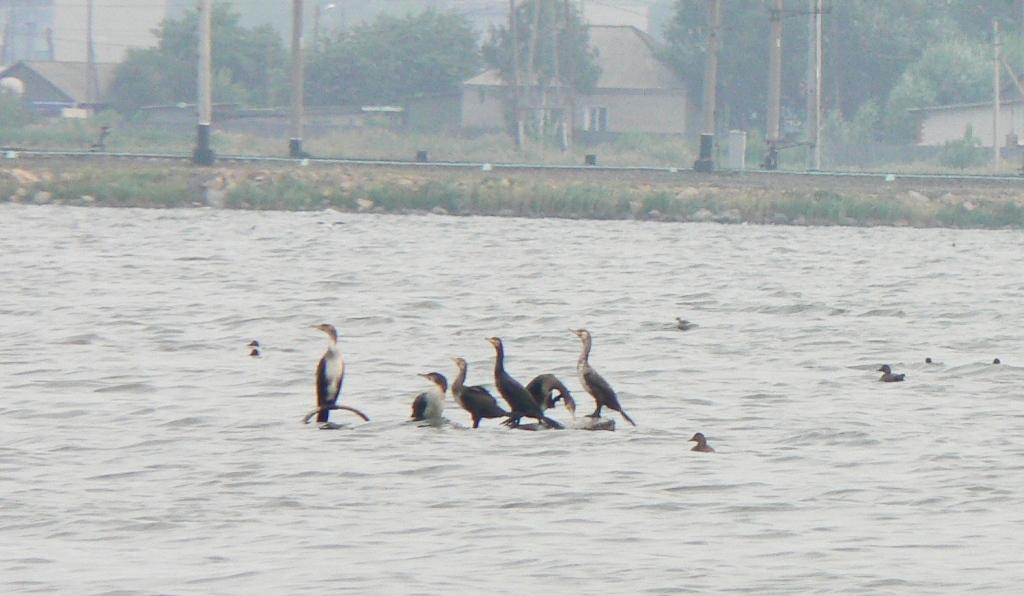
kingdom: Animalia
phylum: Chordata
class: Aves
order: Suliformes
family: Phalacrocoracidae
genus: Phalacrocorax
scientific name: Phalacrocorax carbo
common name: Great cormorant
